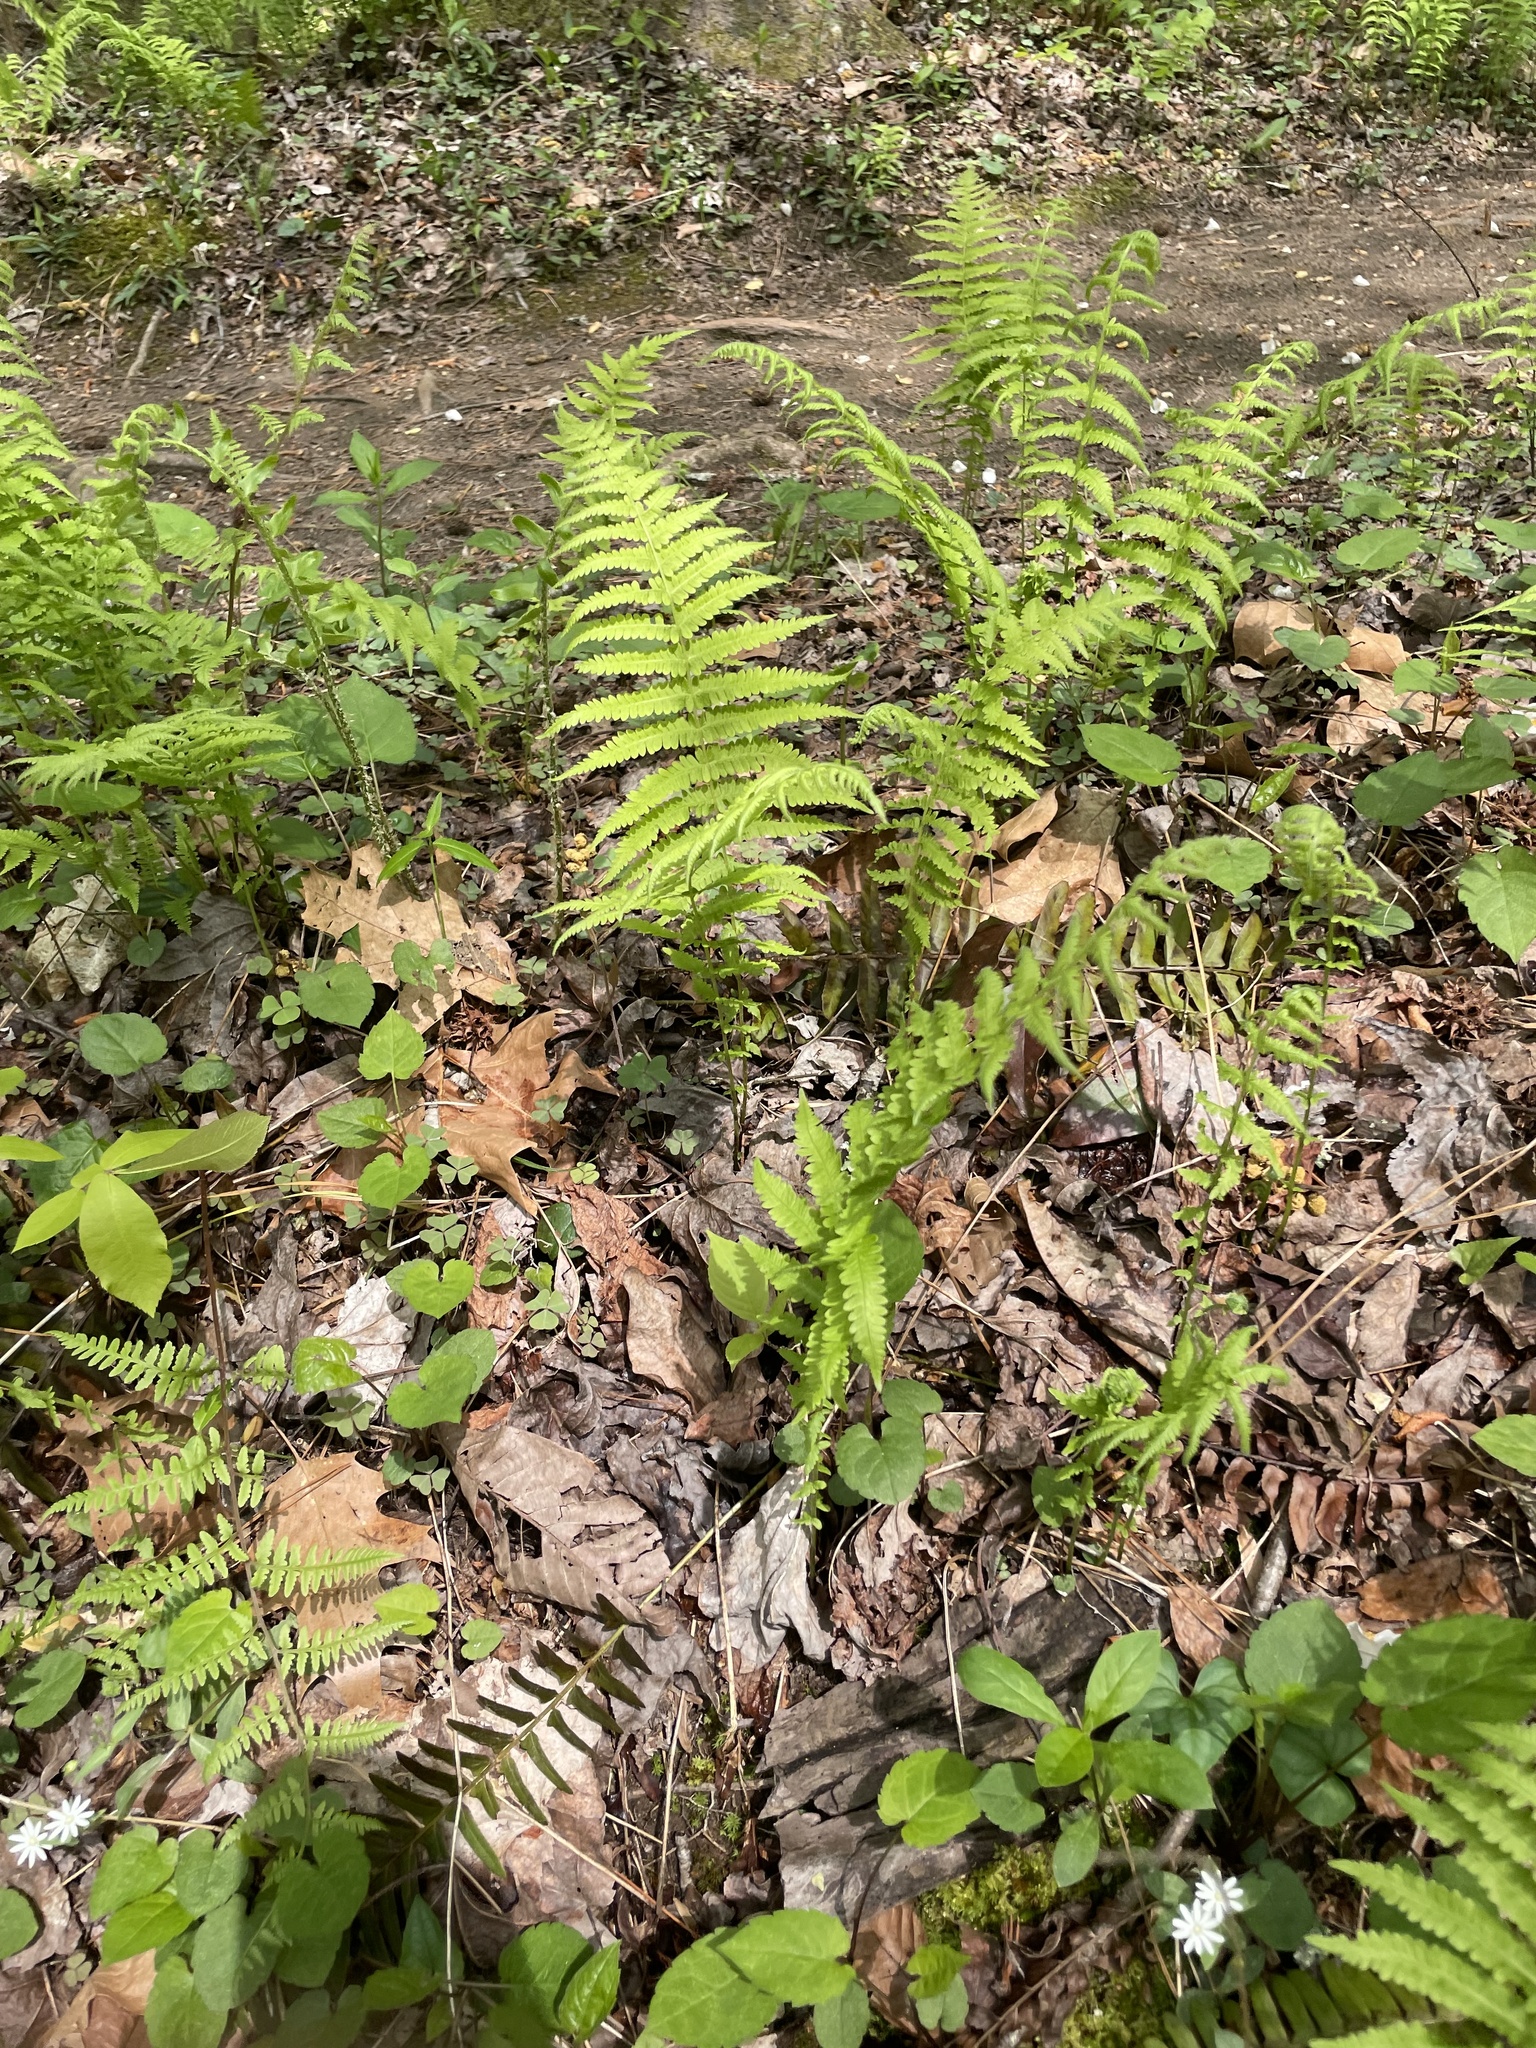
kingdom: Plantae
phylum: Tracheophyta
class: Polypodiopsida
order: Polypodiales
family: Thelypteridaceae
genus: Amauropelta
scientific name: Amauropelta noveboracensis
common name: New york fern
